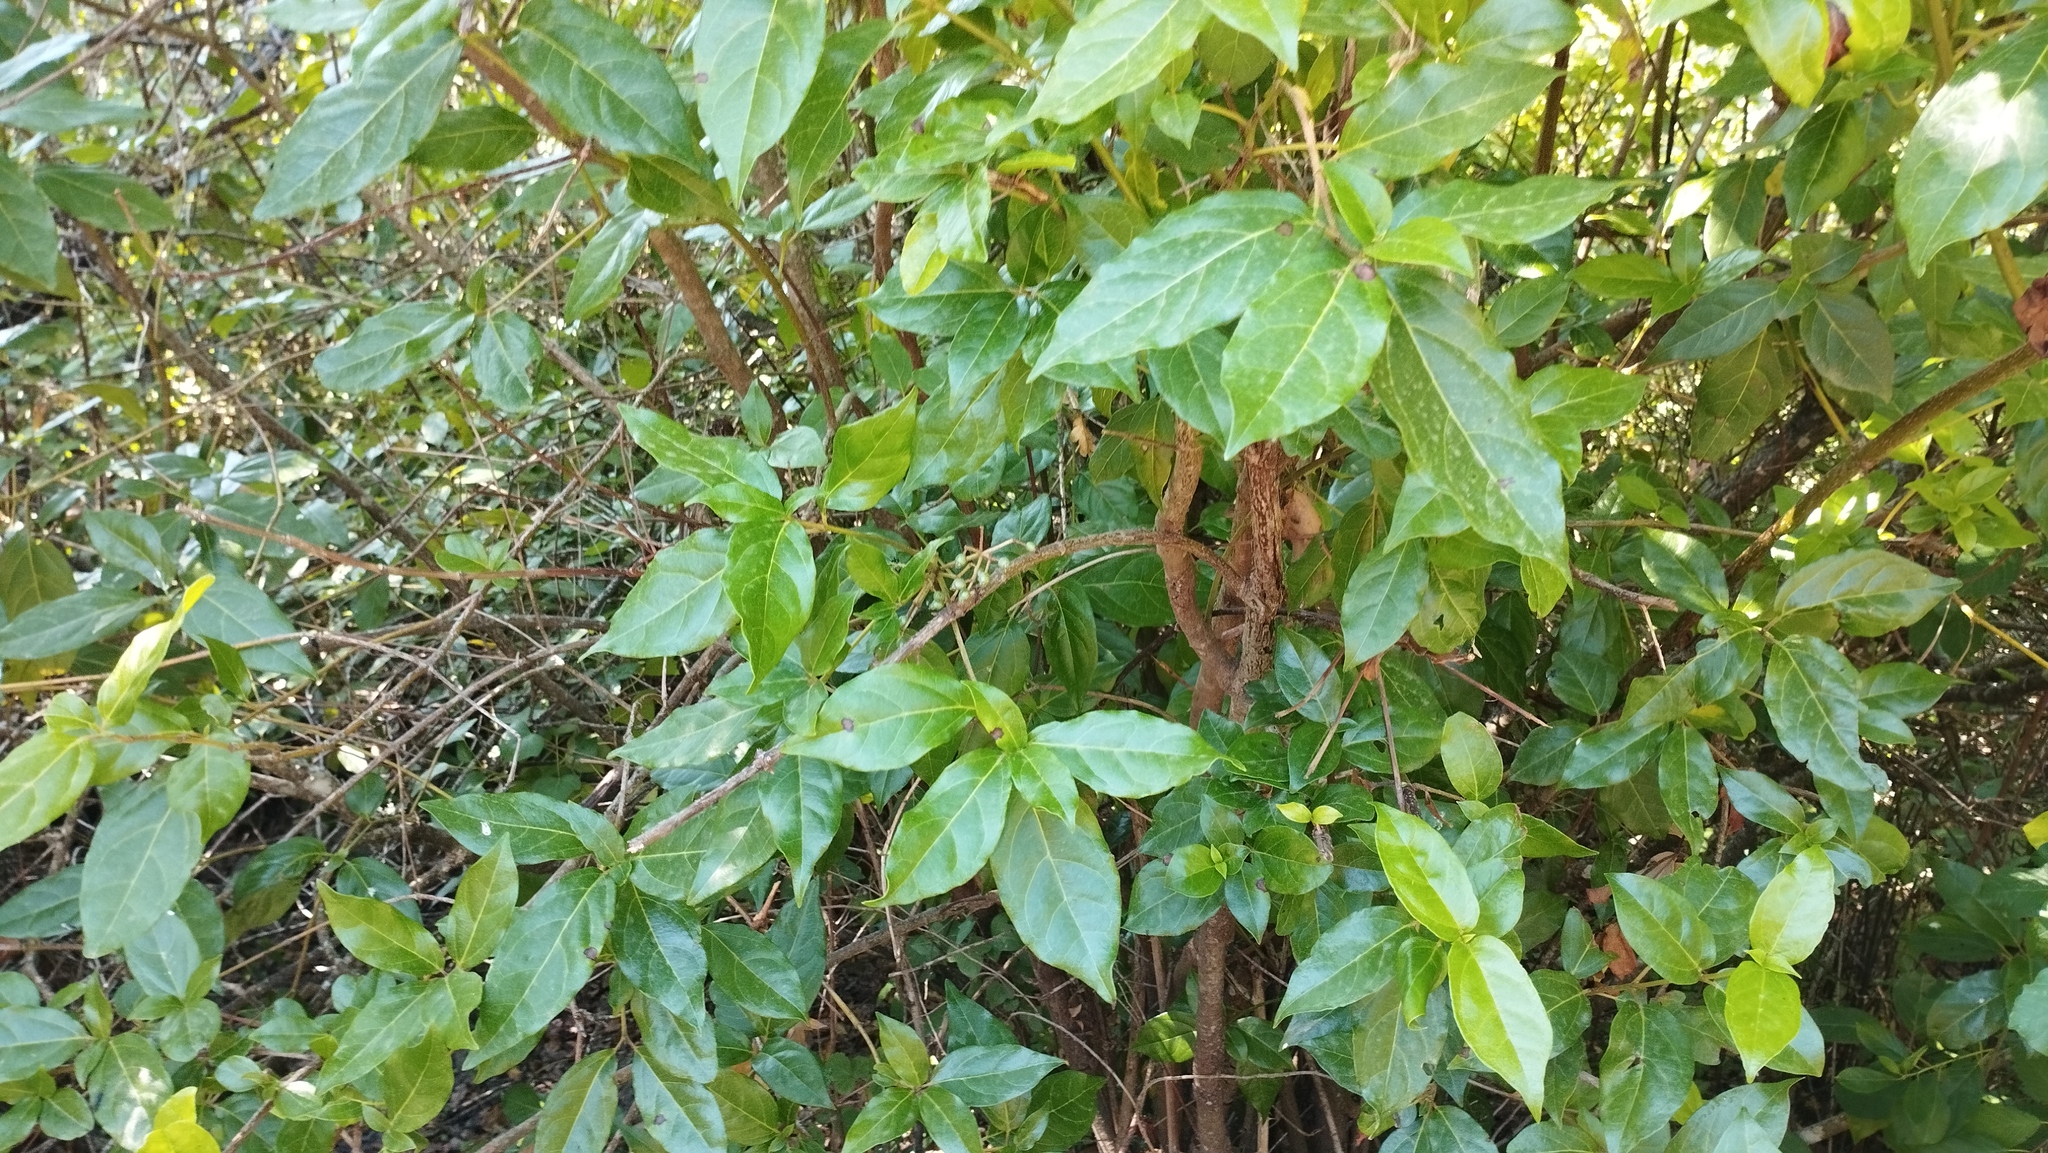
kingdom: Plantae
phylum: Tracheophyta
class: Magnoliopsida
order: Dipsacales
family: Viburnaceae
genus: Viburnum
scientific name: Viburnum tinus
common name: Laurustinus
